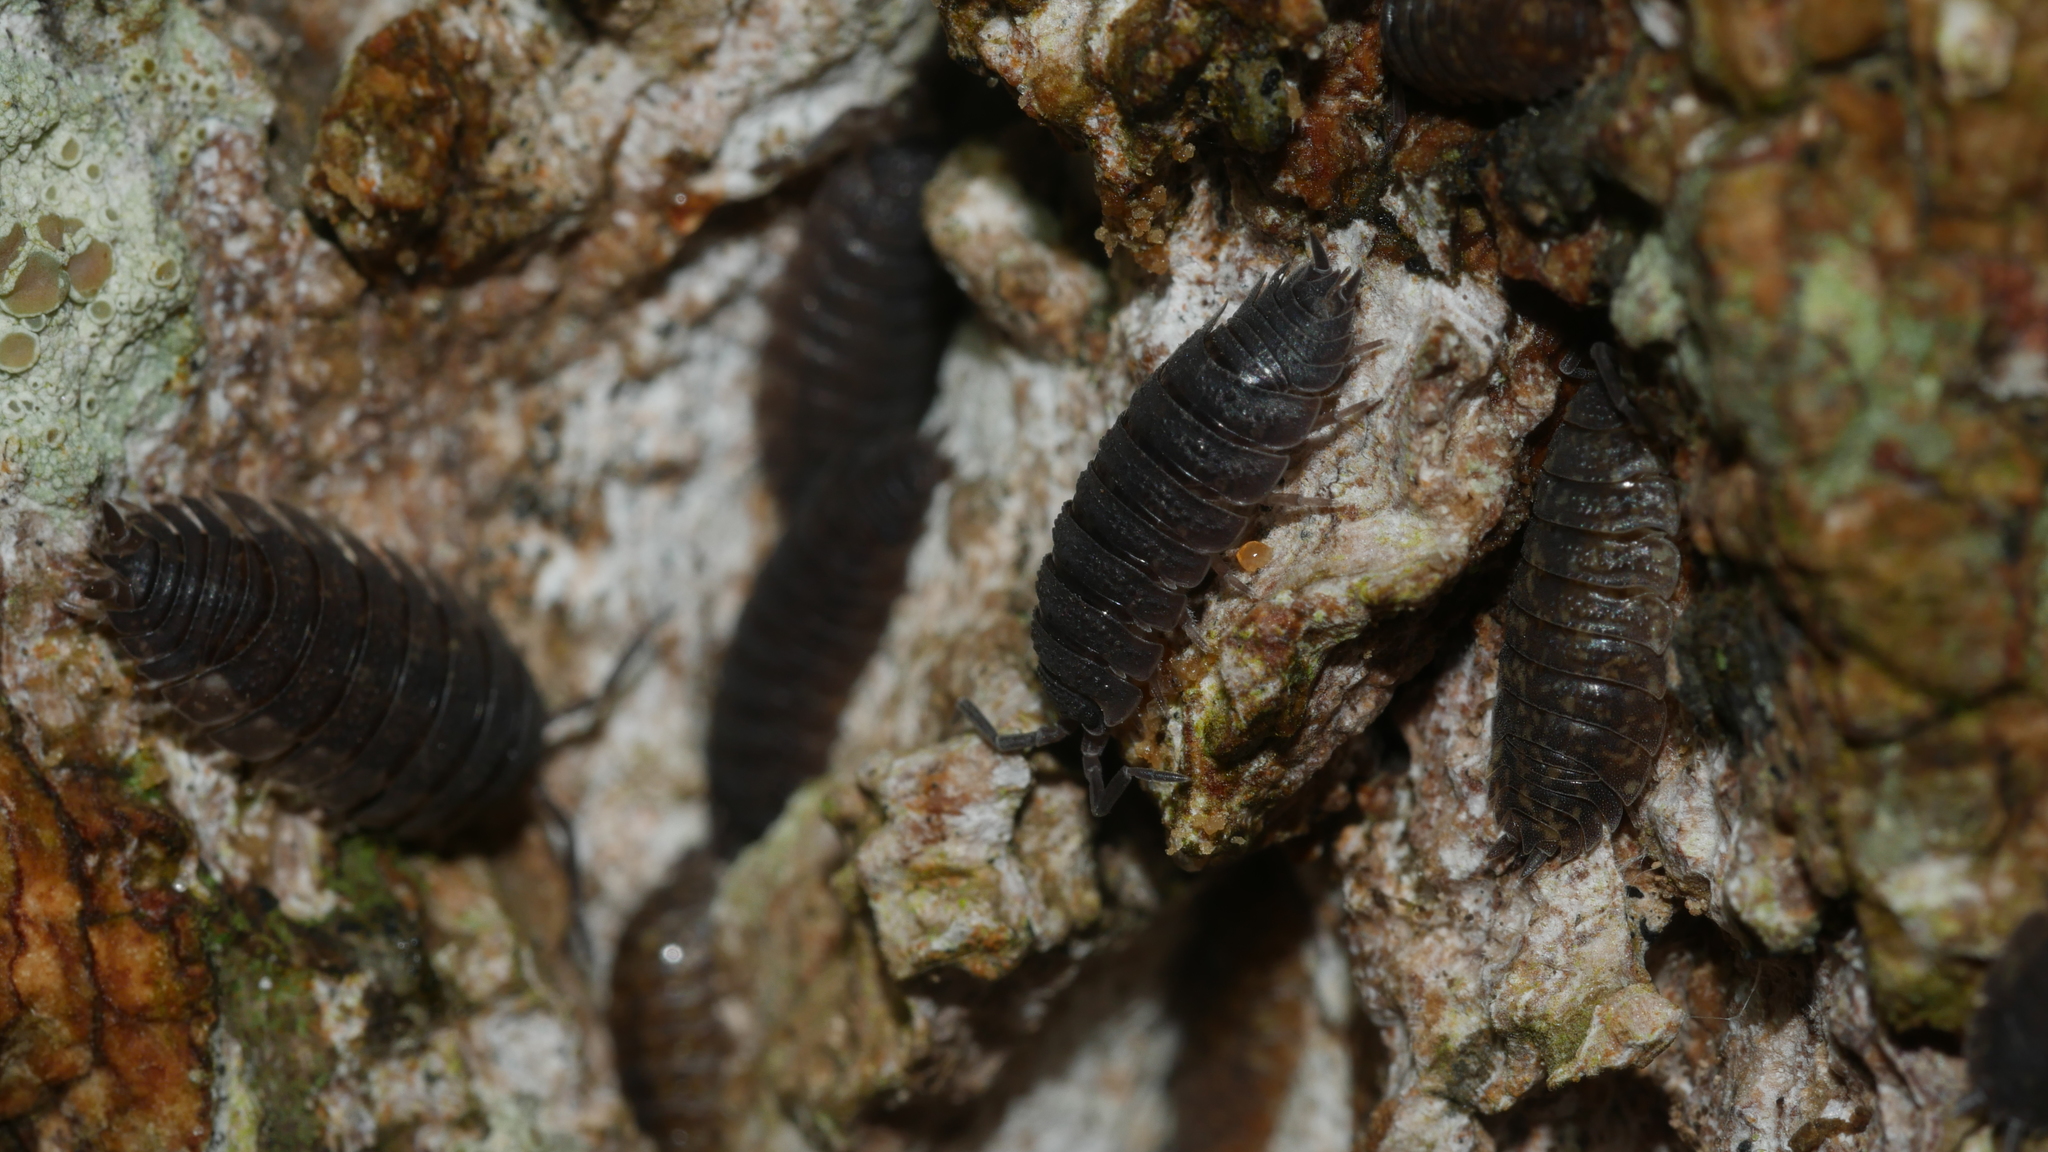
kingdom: Animalia
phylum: Arthropoda
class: Malacostraca
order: Isopoda
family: Porcellionidae
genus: Porcellio
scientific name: Porcellio scaber
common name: Common rough woodlouse
